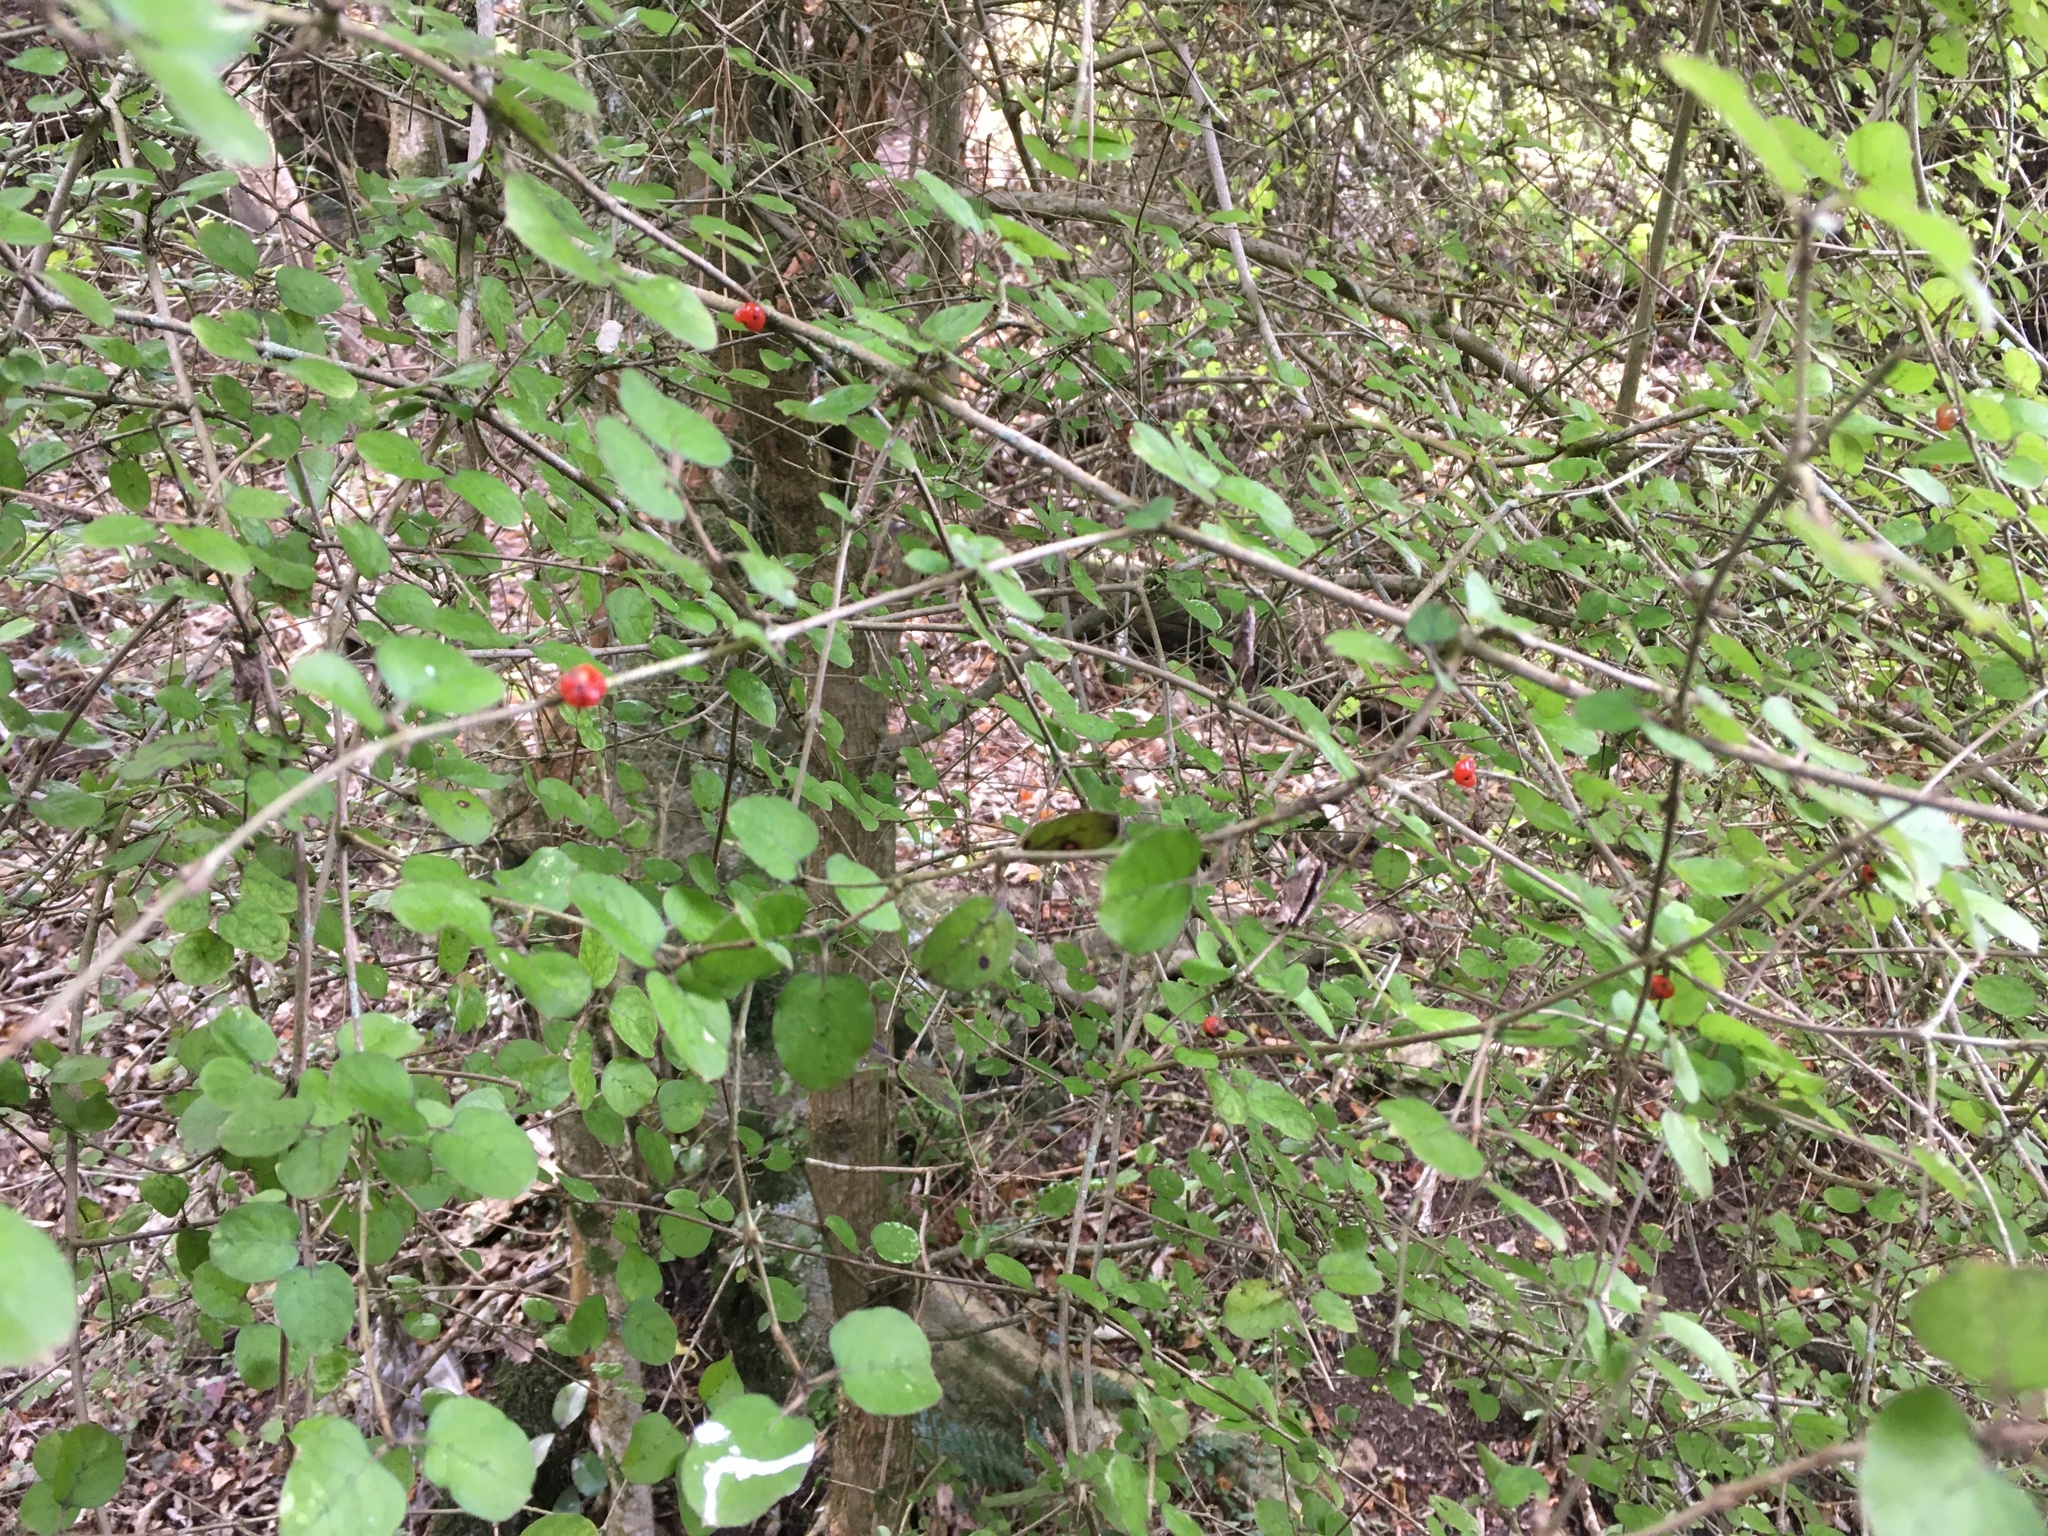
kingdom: Plantae
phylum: Tracheophyta
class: Magnoliopsida
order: Gentianales
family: Rubiaceae
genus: Coprosma
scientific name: Coprosma rotundifolia
